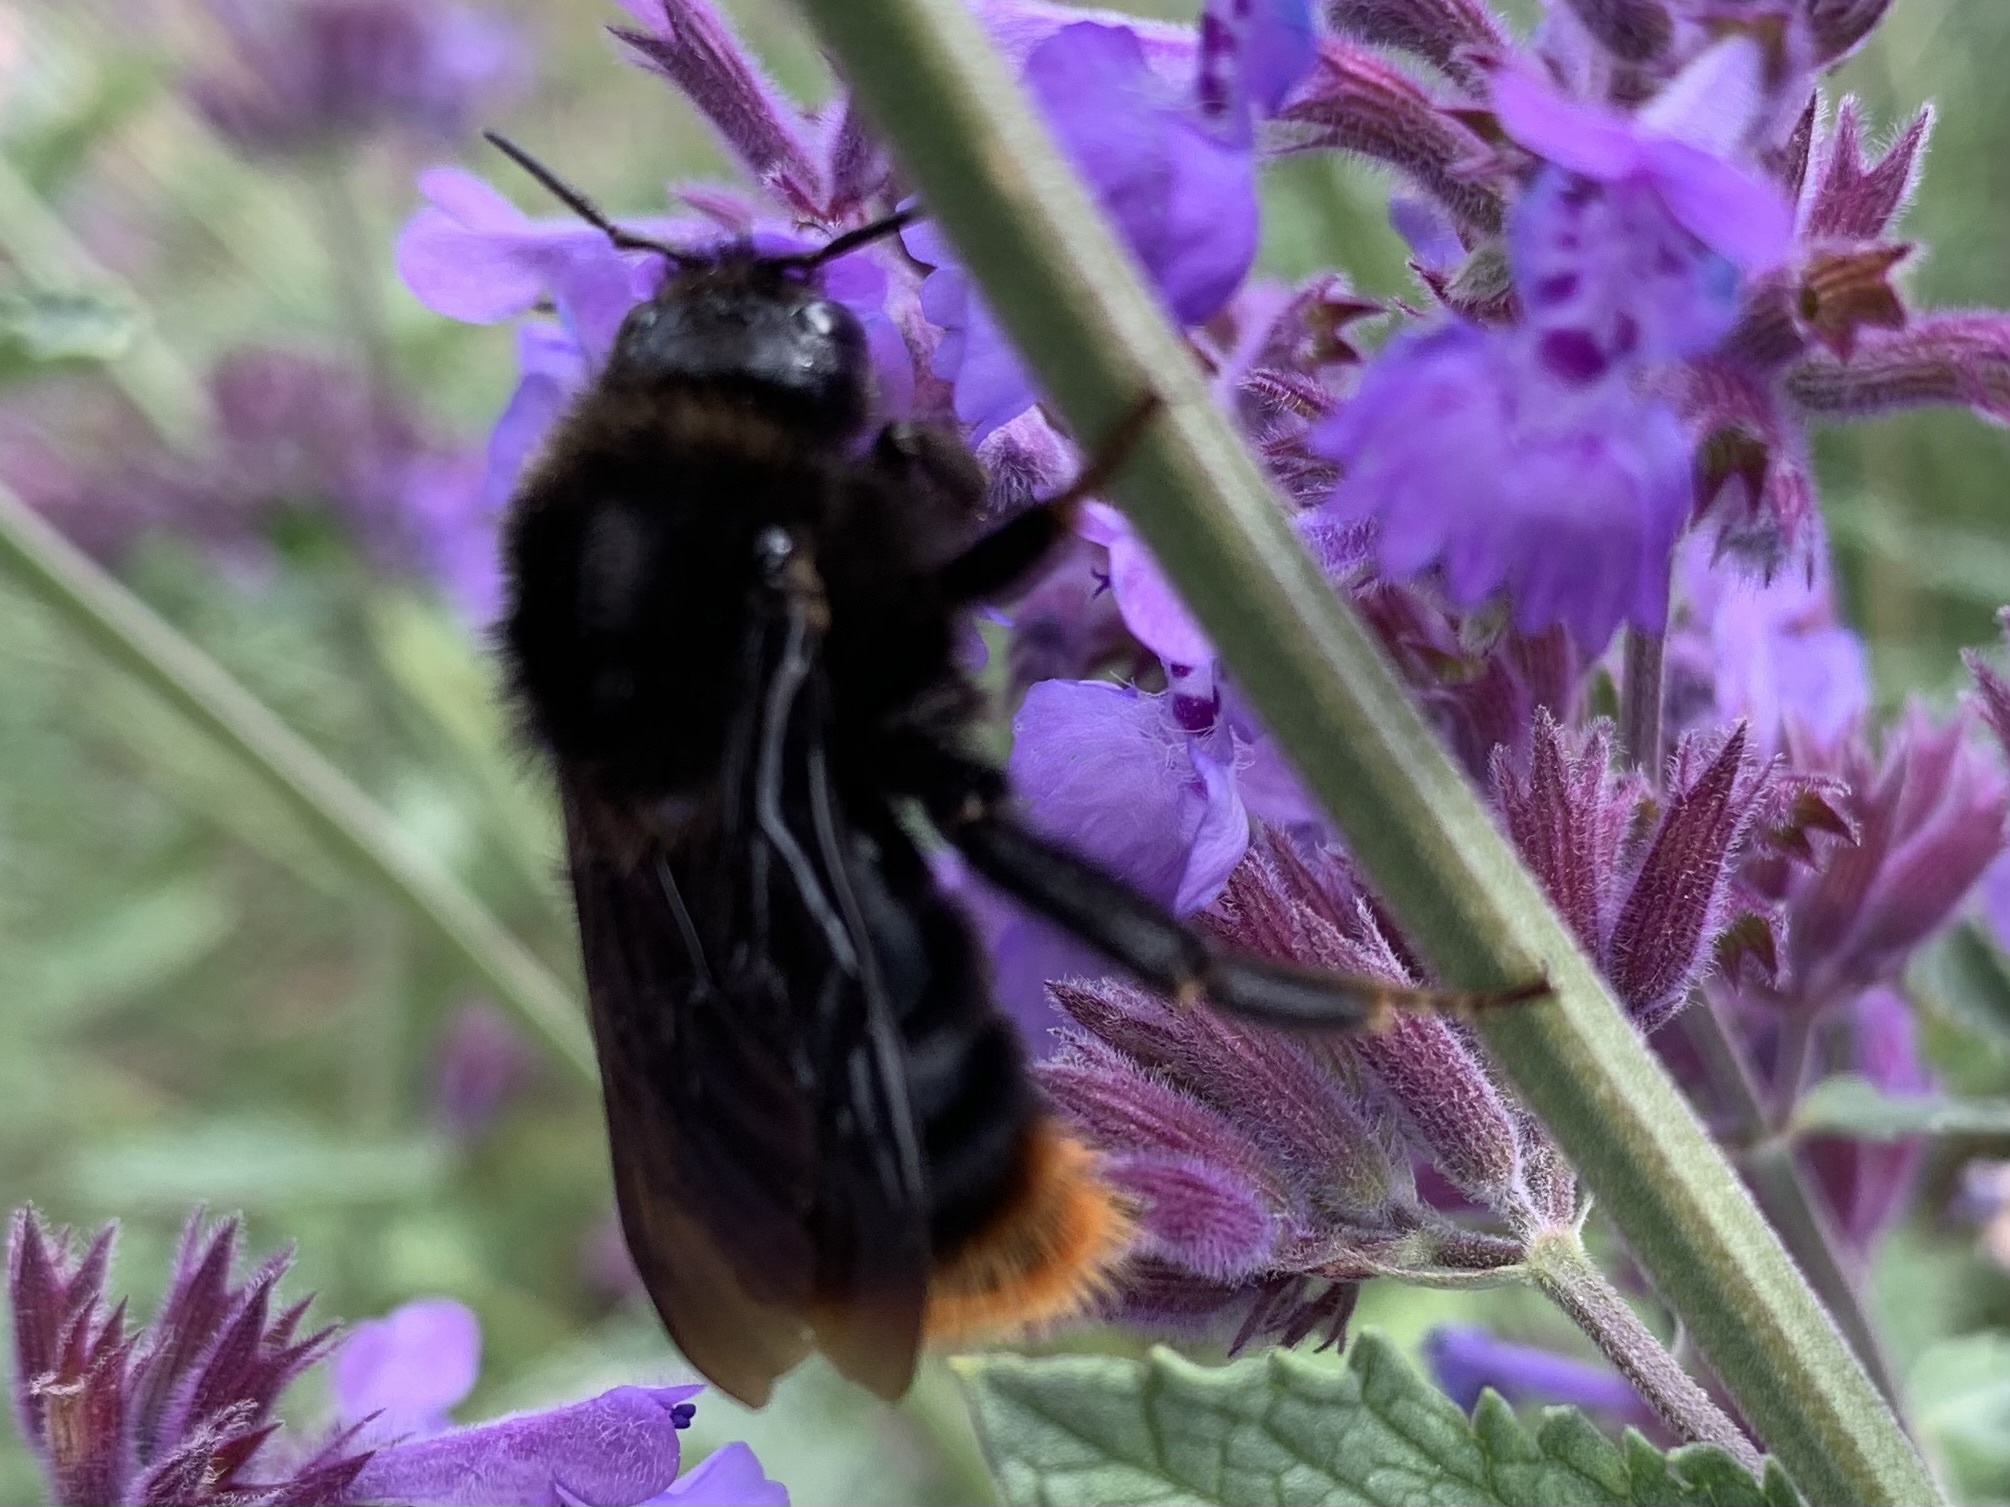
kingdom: Animalia
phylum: Arthropoda
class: Insecta
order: Hymenoptera
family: Apidae
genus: Bombus
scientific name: Bombus rupestris
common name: Hill cuckoo-bee
